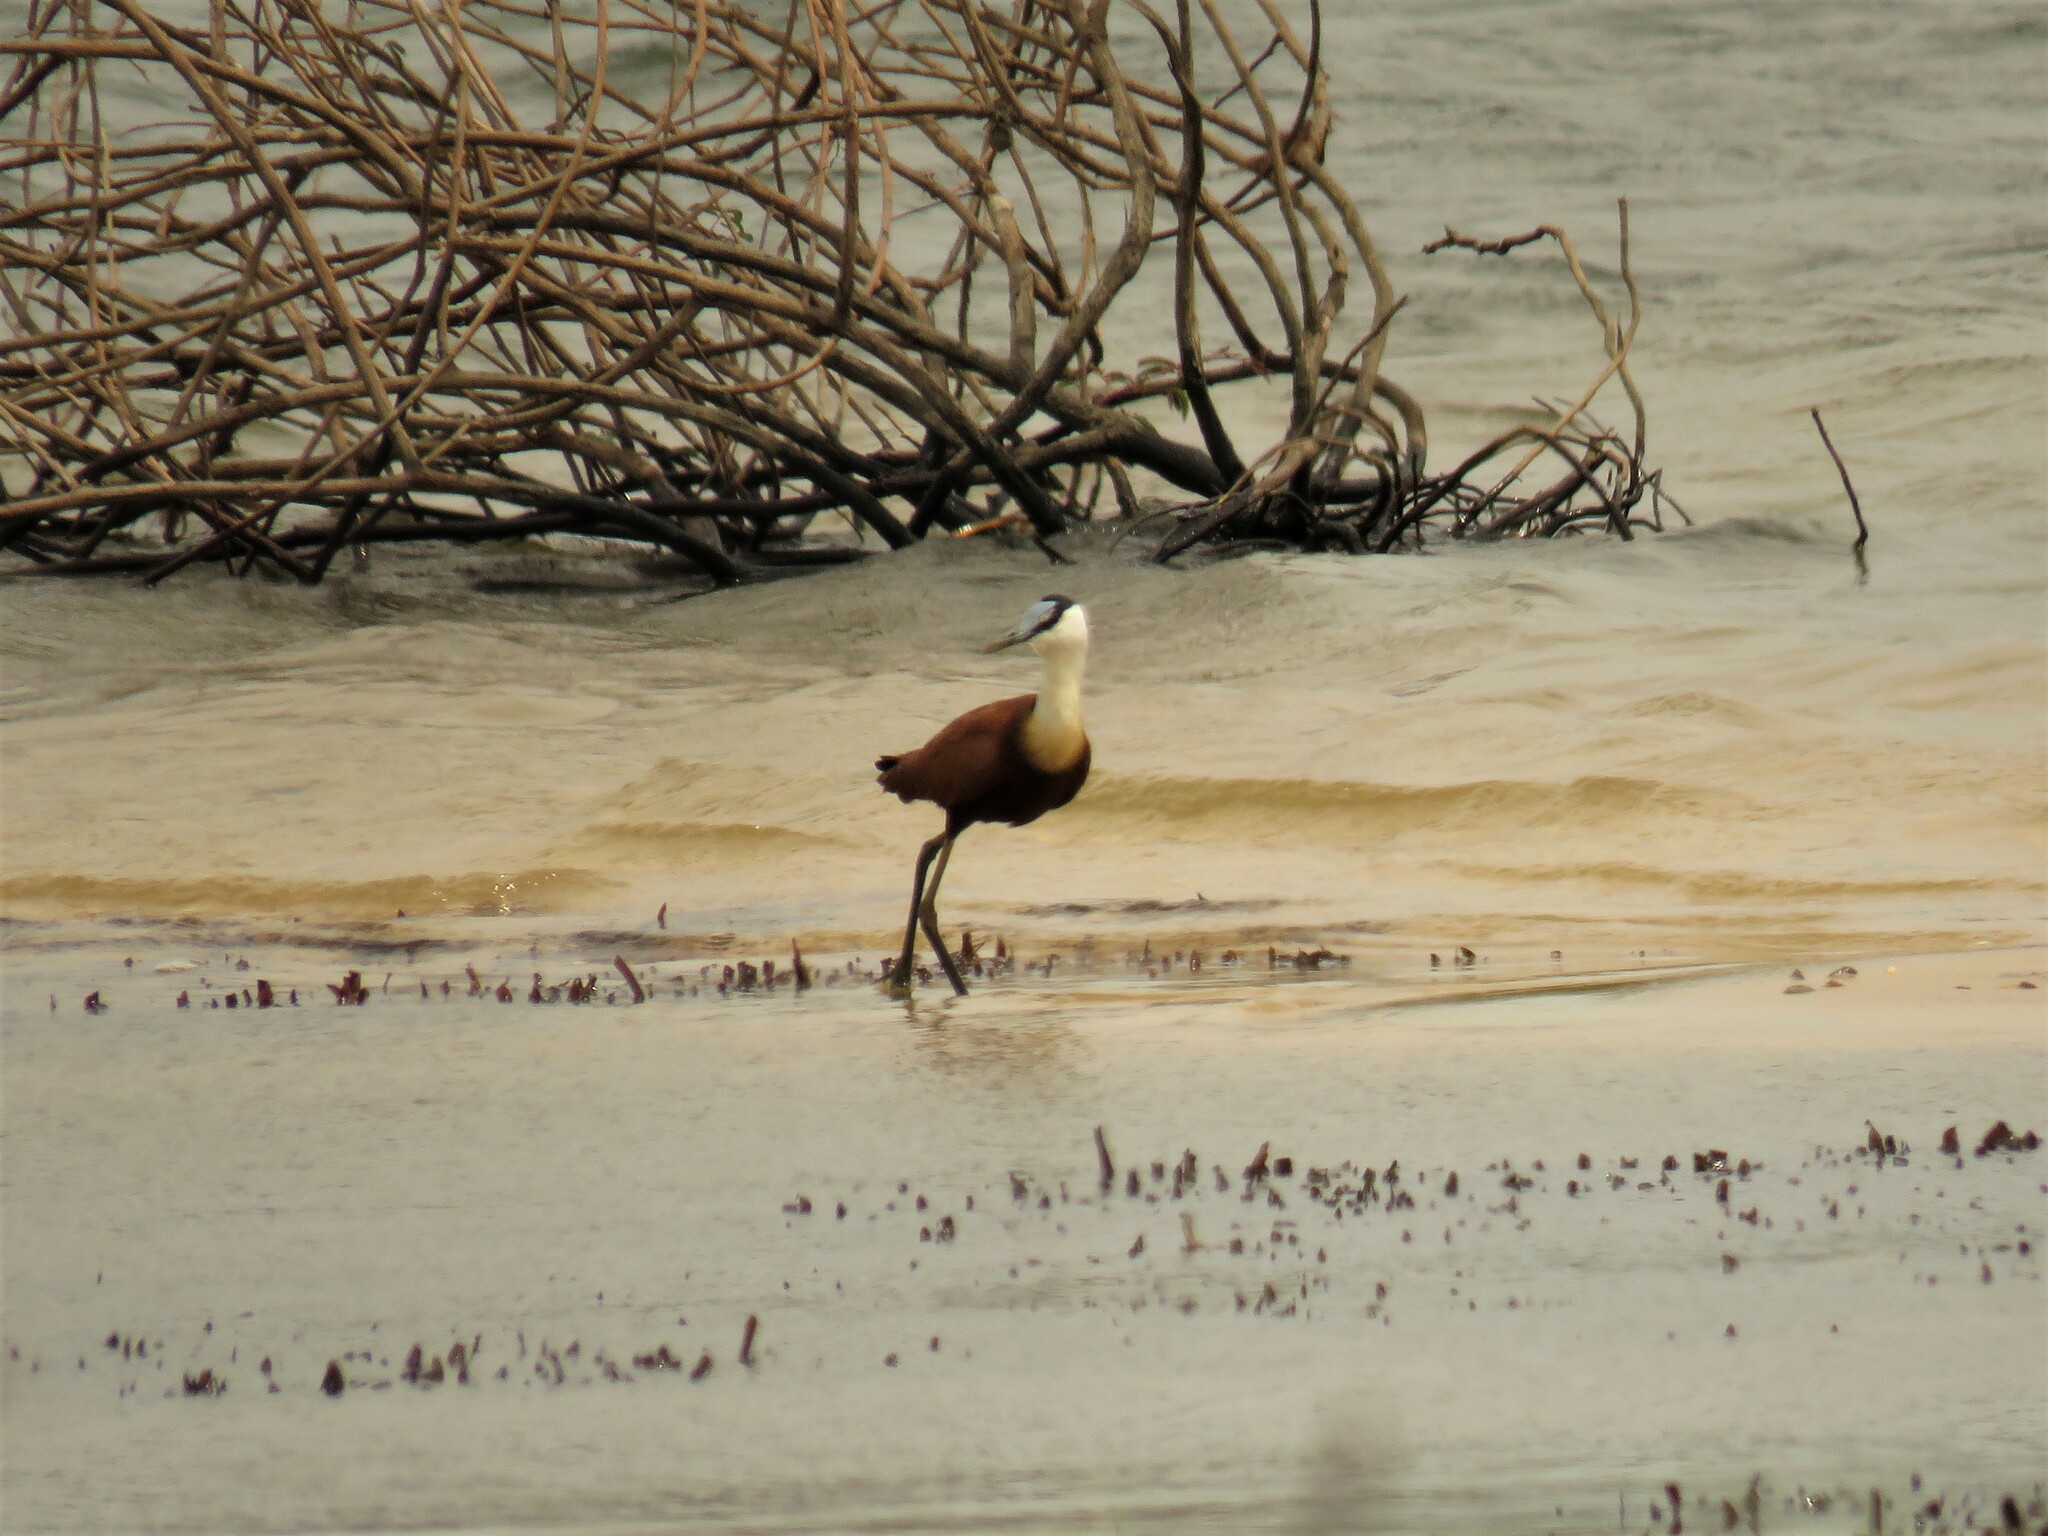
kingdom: Animalia
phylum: Chordata
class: Aves
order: Charadriiformes
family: Jacanidae
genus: Actophilornis
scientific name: Actophilornis africanus
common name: African jacana
